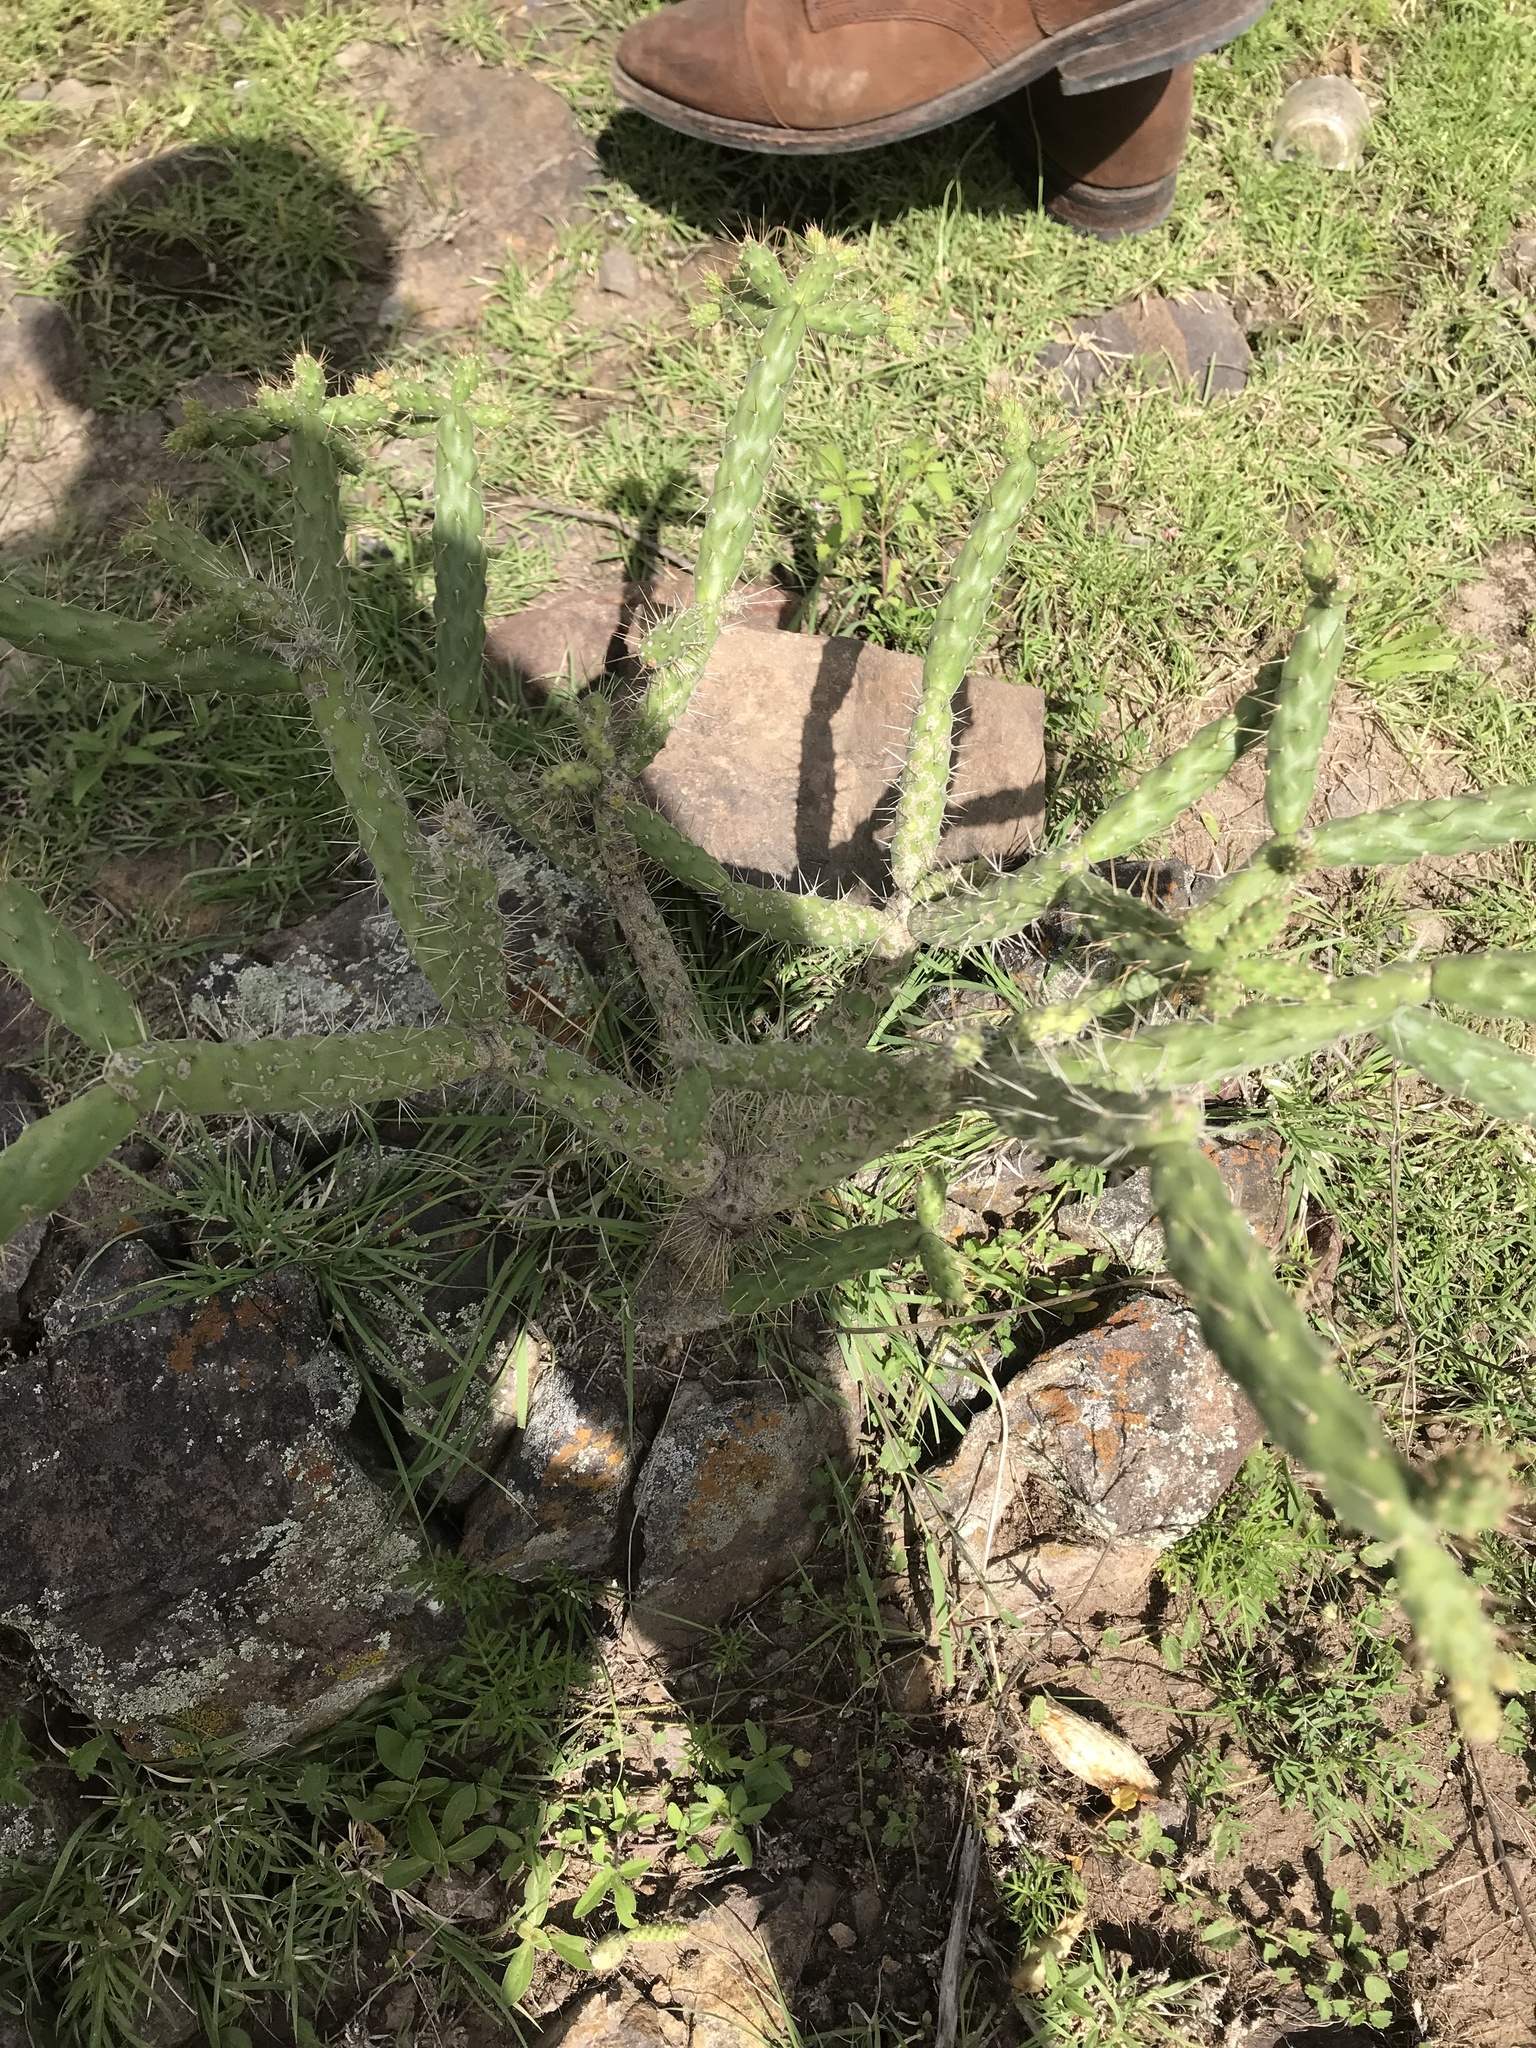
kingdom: Plantae
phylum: Tracheophyta
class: Magnoliopsida
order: Caryophyllales
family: Cactaceae
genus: Opuntia
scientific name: Opuntia
